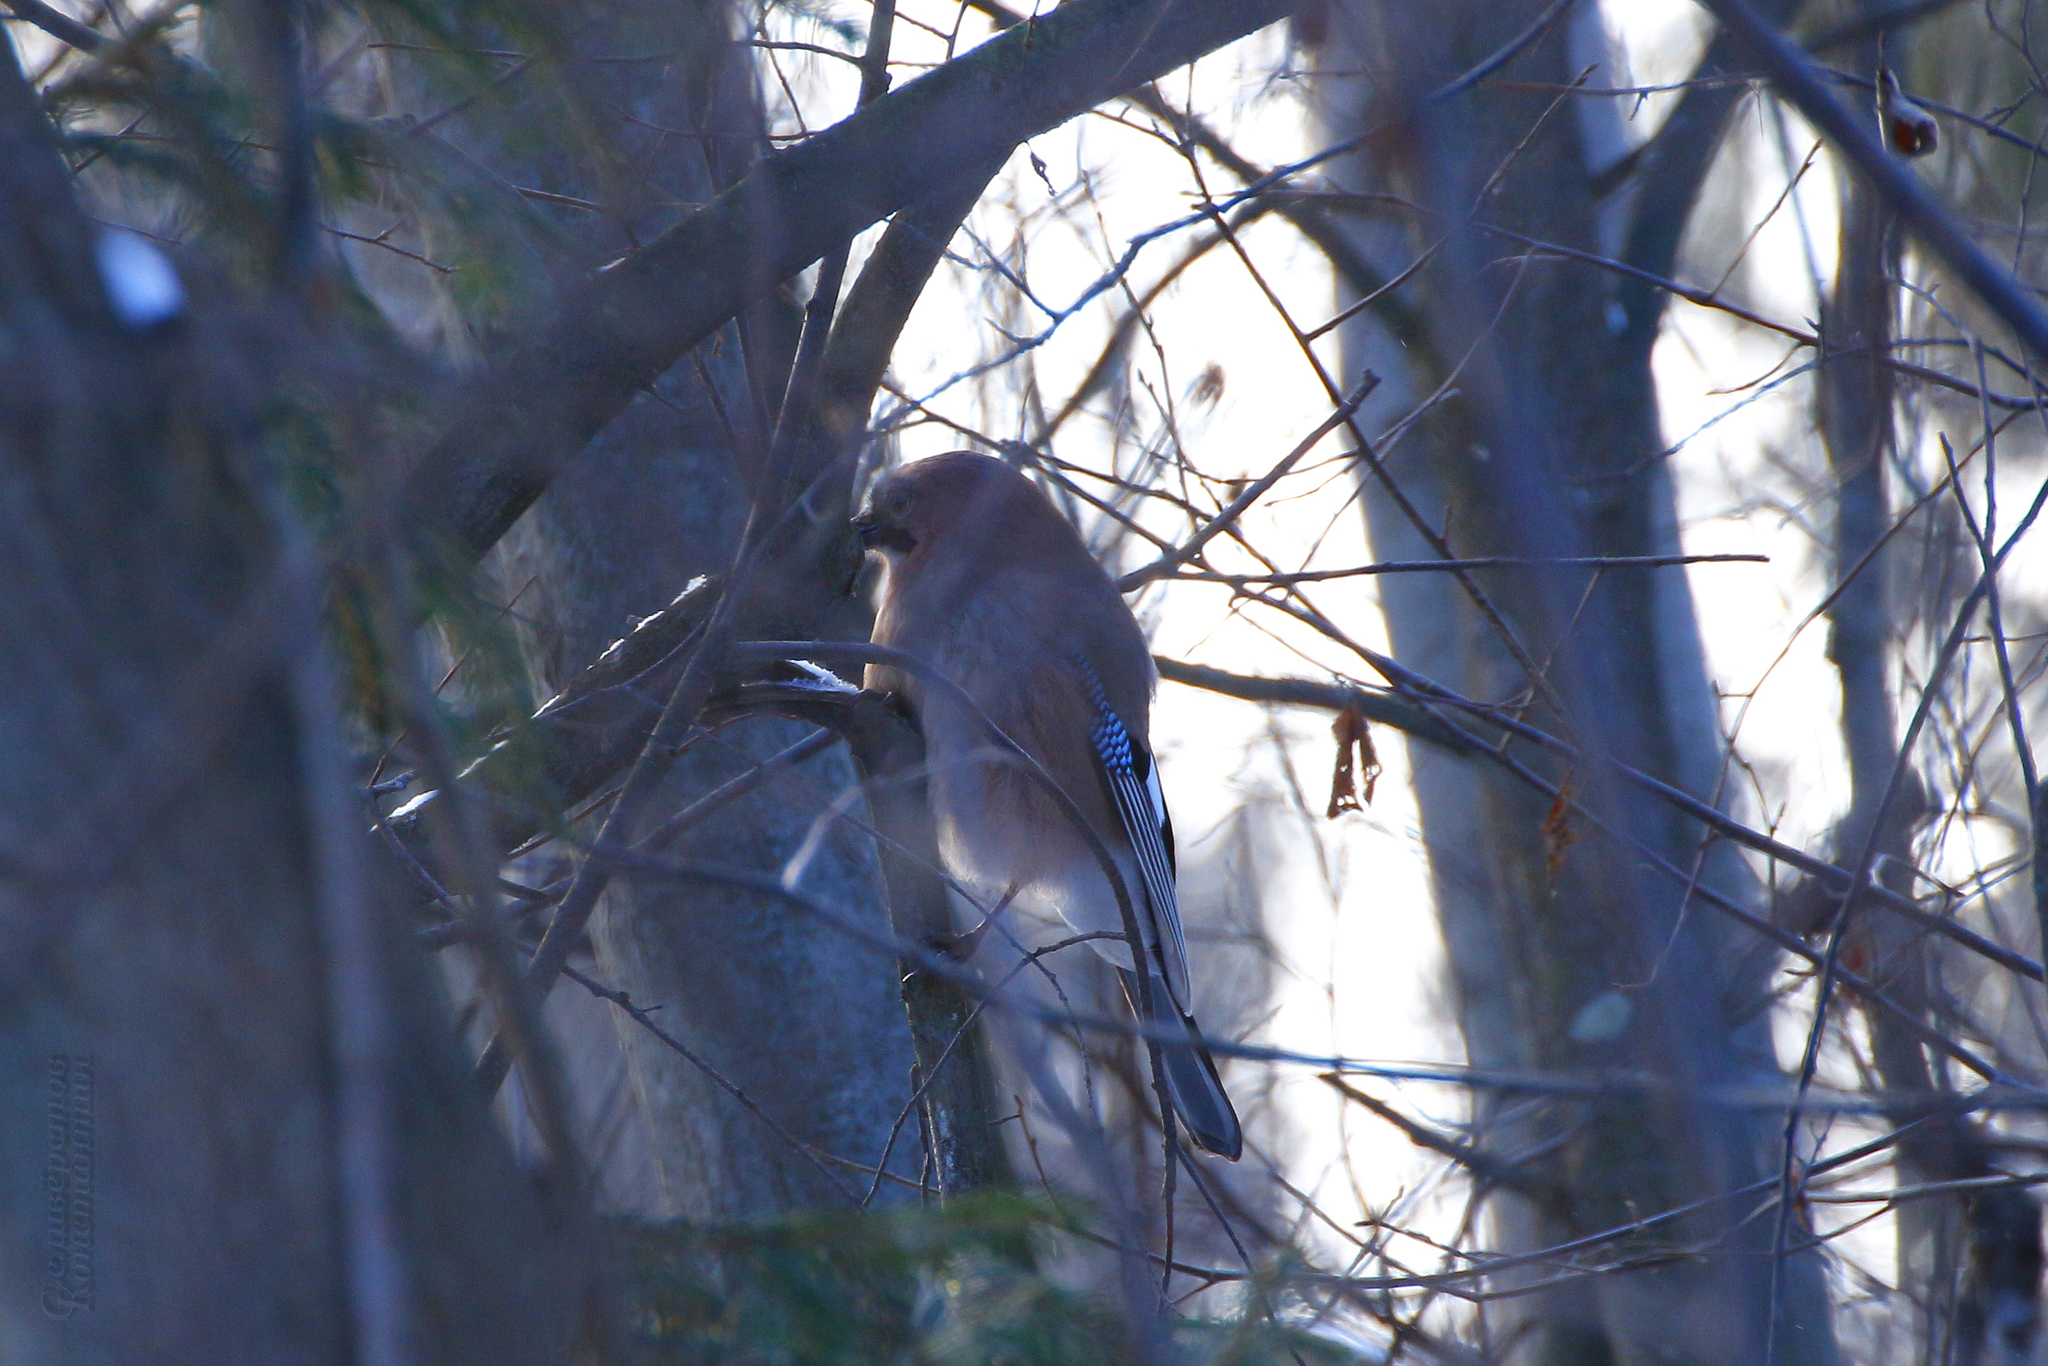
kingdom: Animalia
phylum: Chordata
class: Aves
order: Passeriformes
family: Corvidae
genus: Garrulus
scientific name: Garrulus glandarius
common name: Eurasian jay
